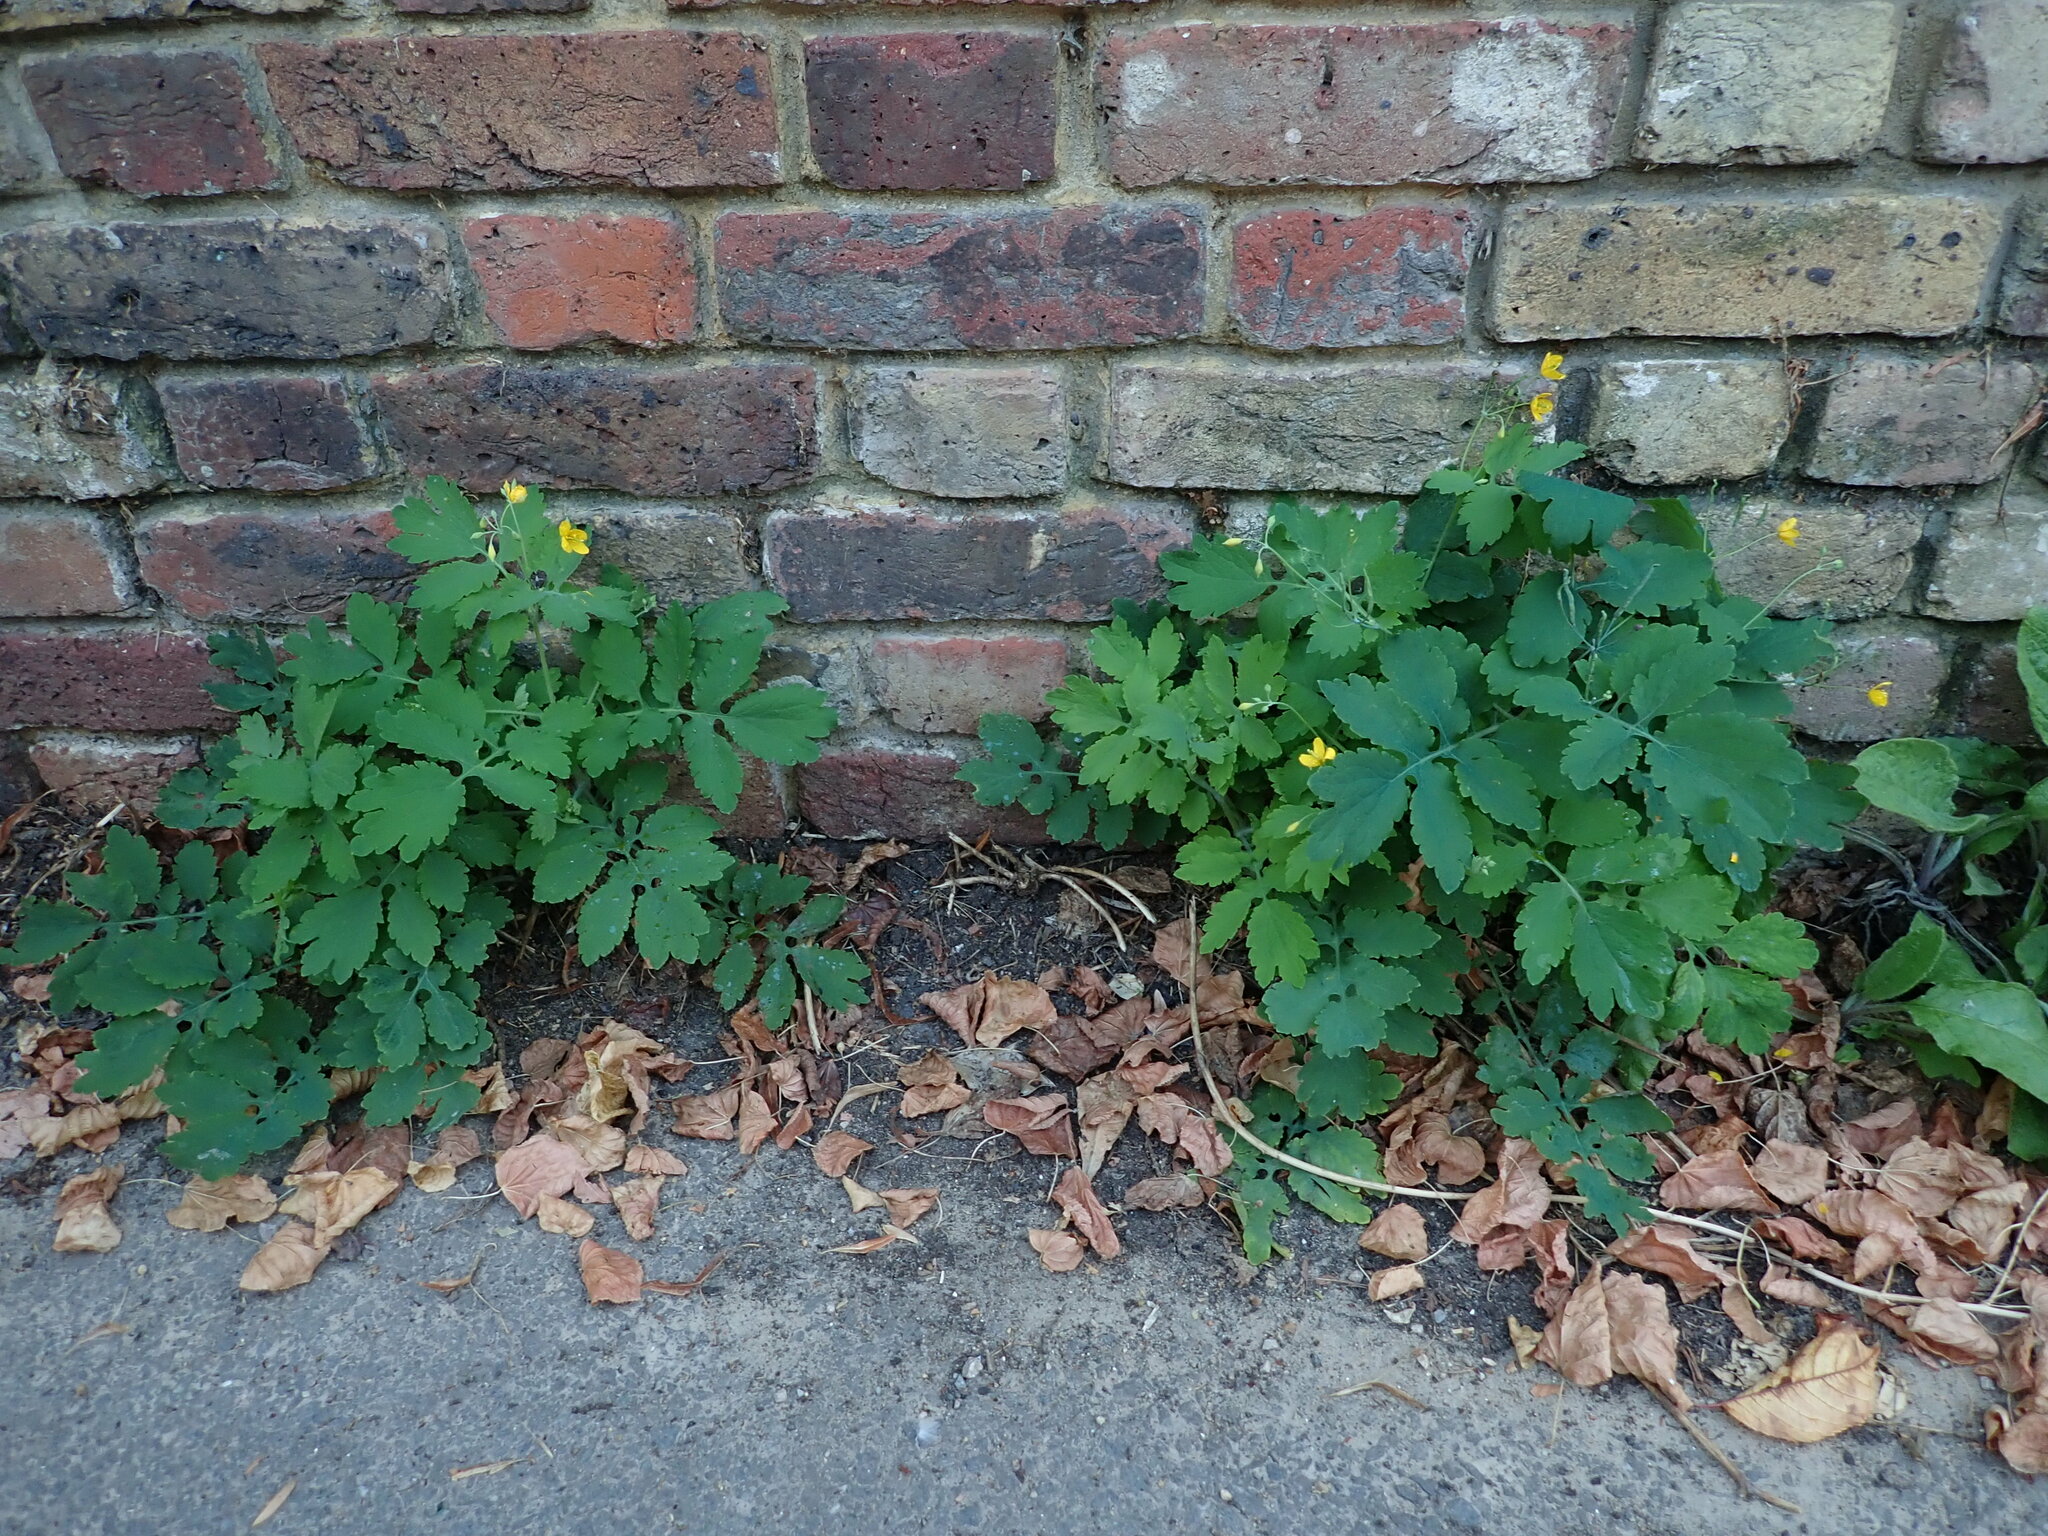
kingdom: Plantae
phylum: Tracheophyta
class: Magnoliopsida
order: Ranunculales
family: Papaveraceae
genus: Chelidonium
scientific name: Chelidonium majus
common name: Greater celandine
